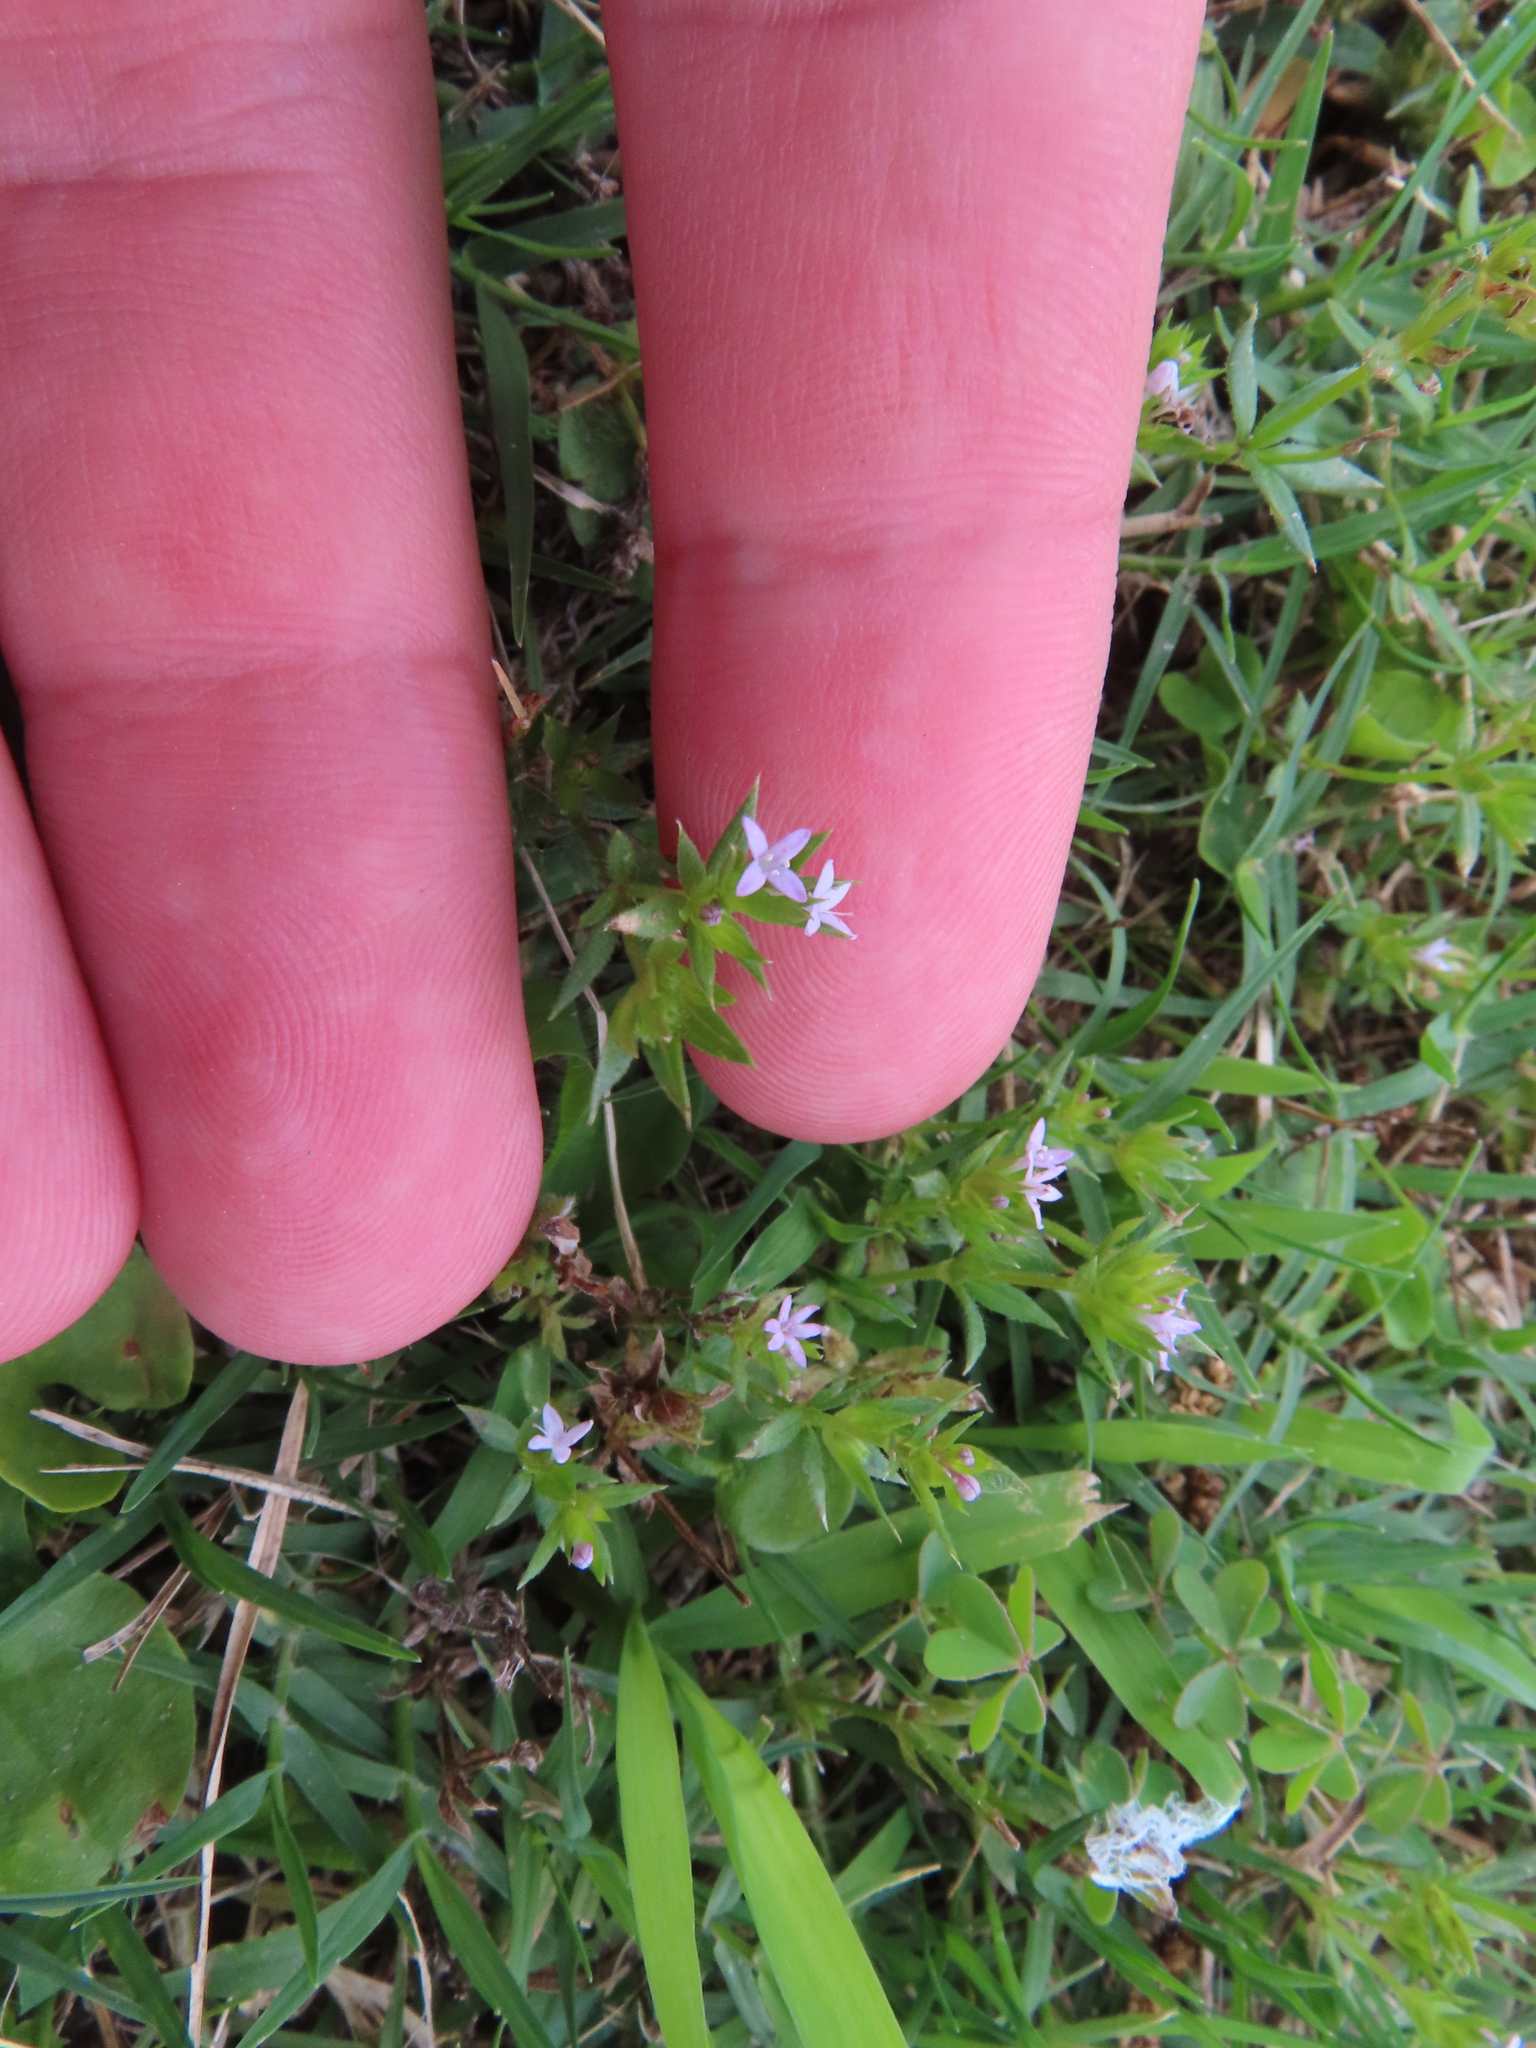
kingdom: Plantae
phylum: Tracheophyta
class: Magnoliopsida
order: Gentianales
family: Rubiaceae
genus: Sherardia
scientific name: Sherardia arvensis
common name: Field madder
